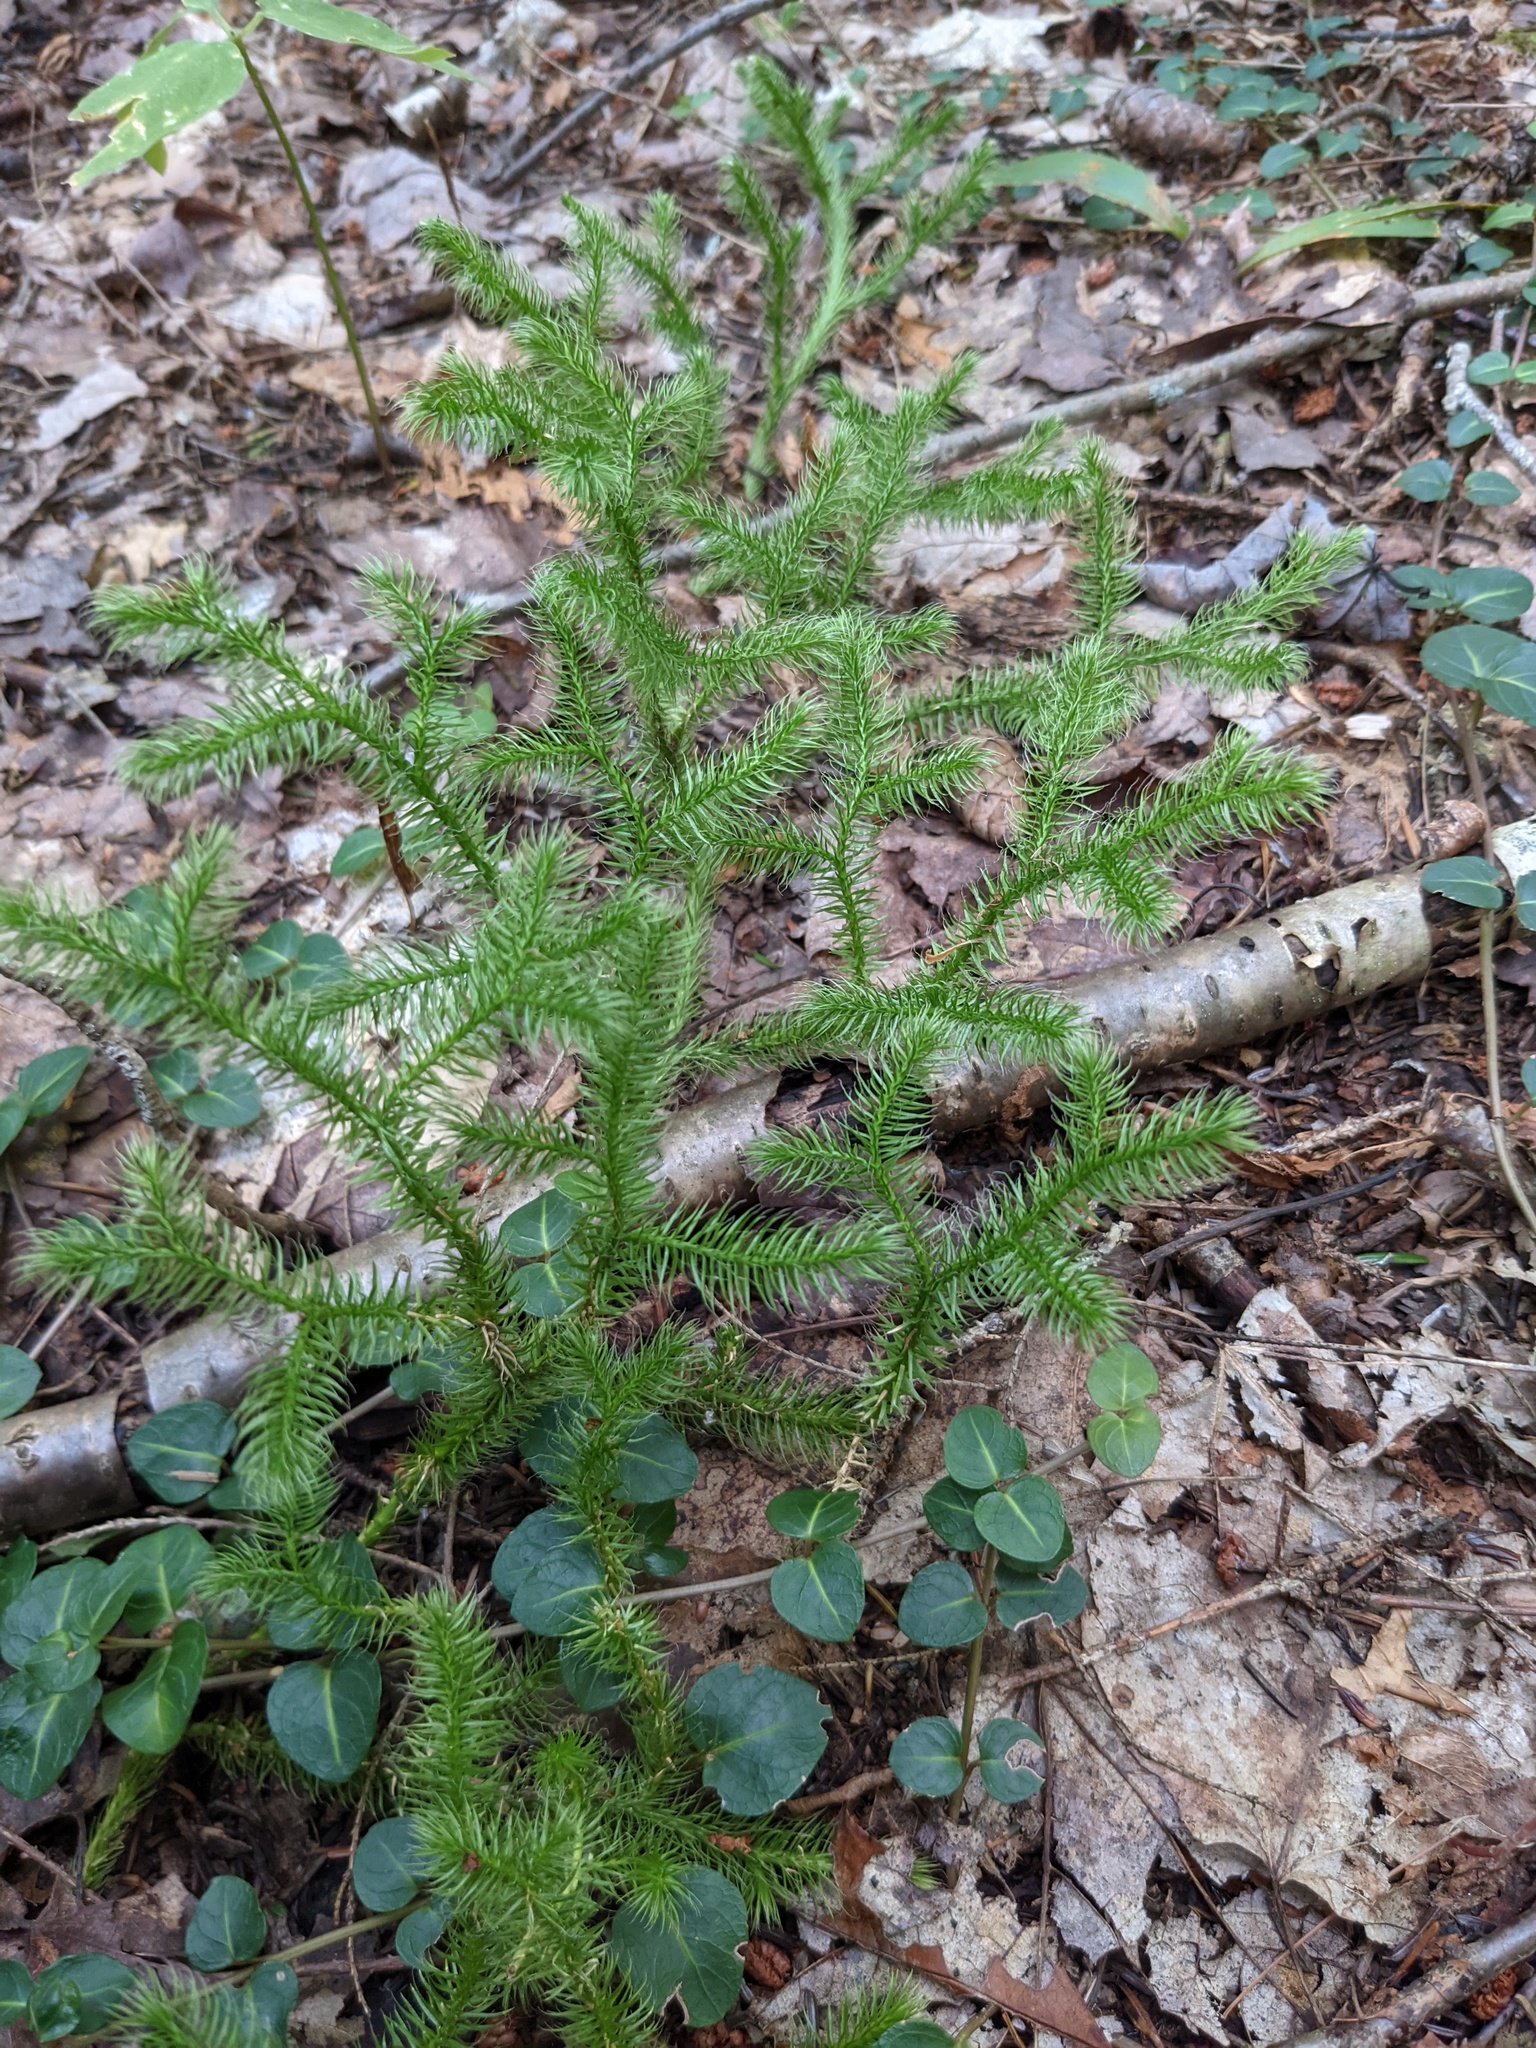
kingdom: Plantae
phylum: Tracheophyta
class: Lycopodiopsida
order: Lycopodiales
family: Lycopodiaceae
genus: Lycopodium
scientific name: Lycopodium clavatum
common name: Stag's-horn clubmoss
